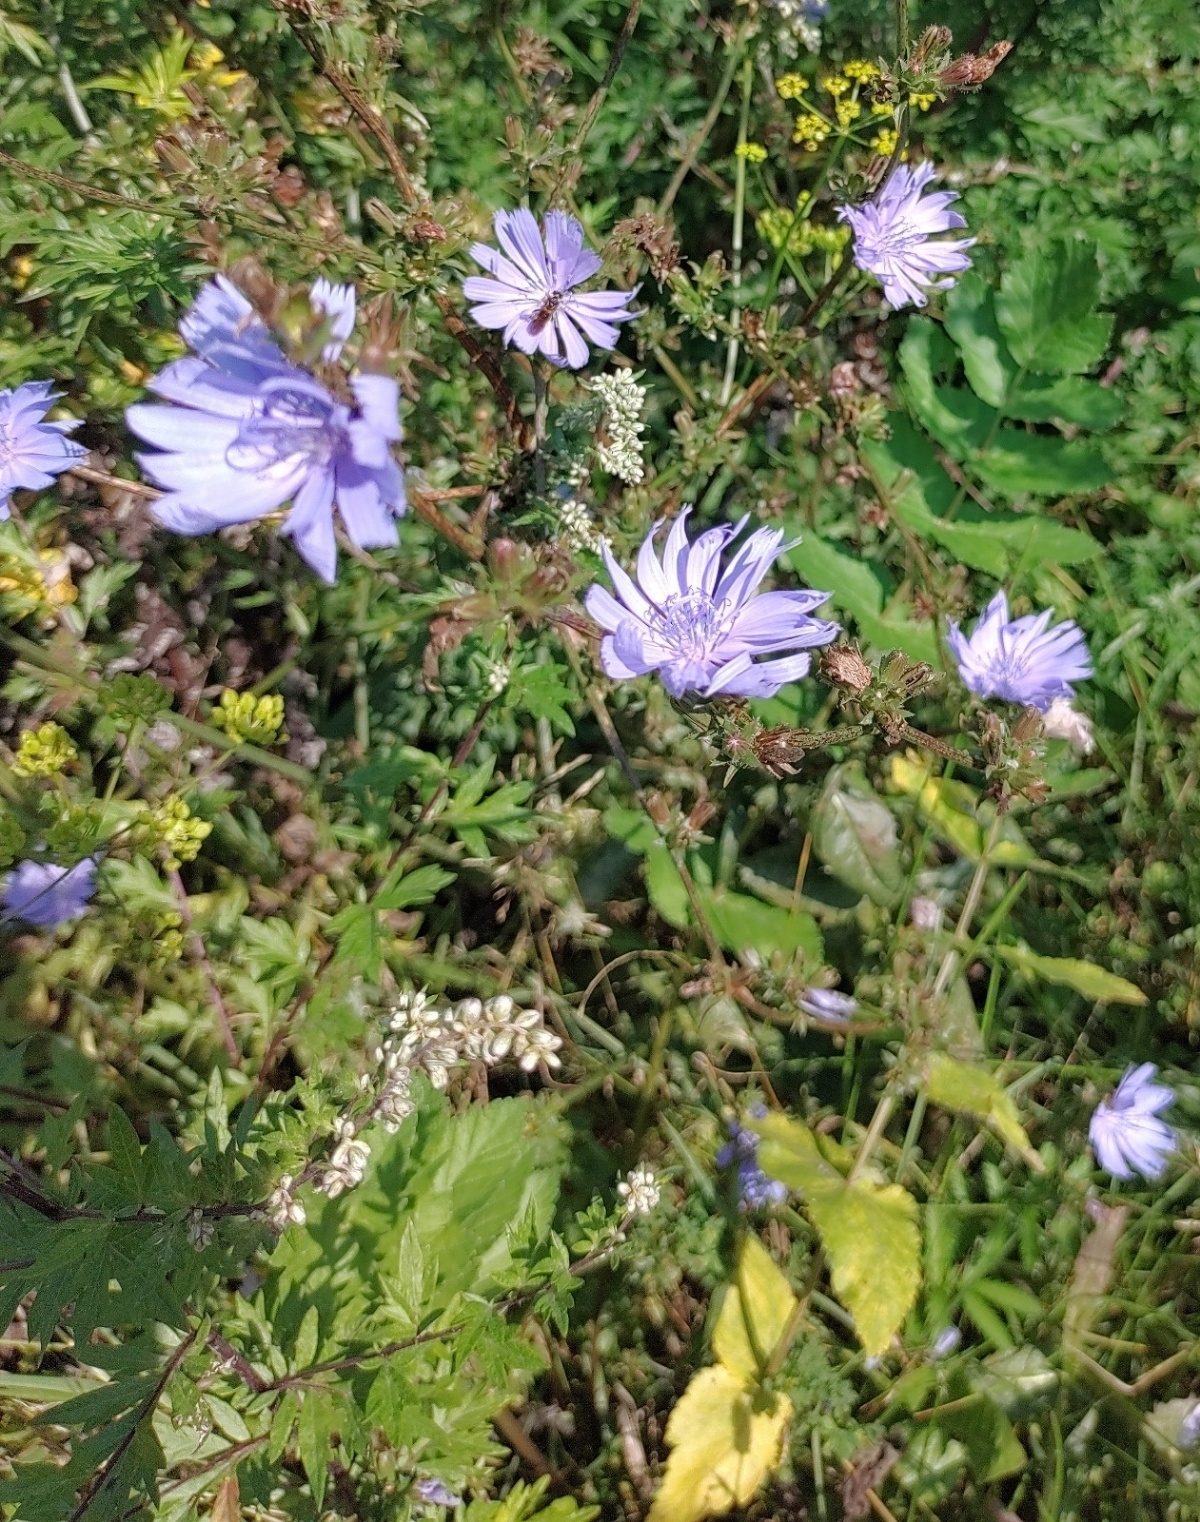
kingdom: Plantae
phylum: Tracheophyta
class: Magnoliopsida
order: Asterales
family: Asteraceae
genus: Cichorium
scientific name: Cichorium intybus
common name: Chicory
